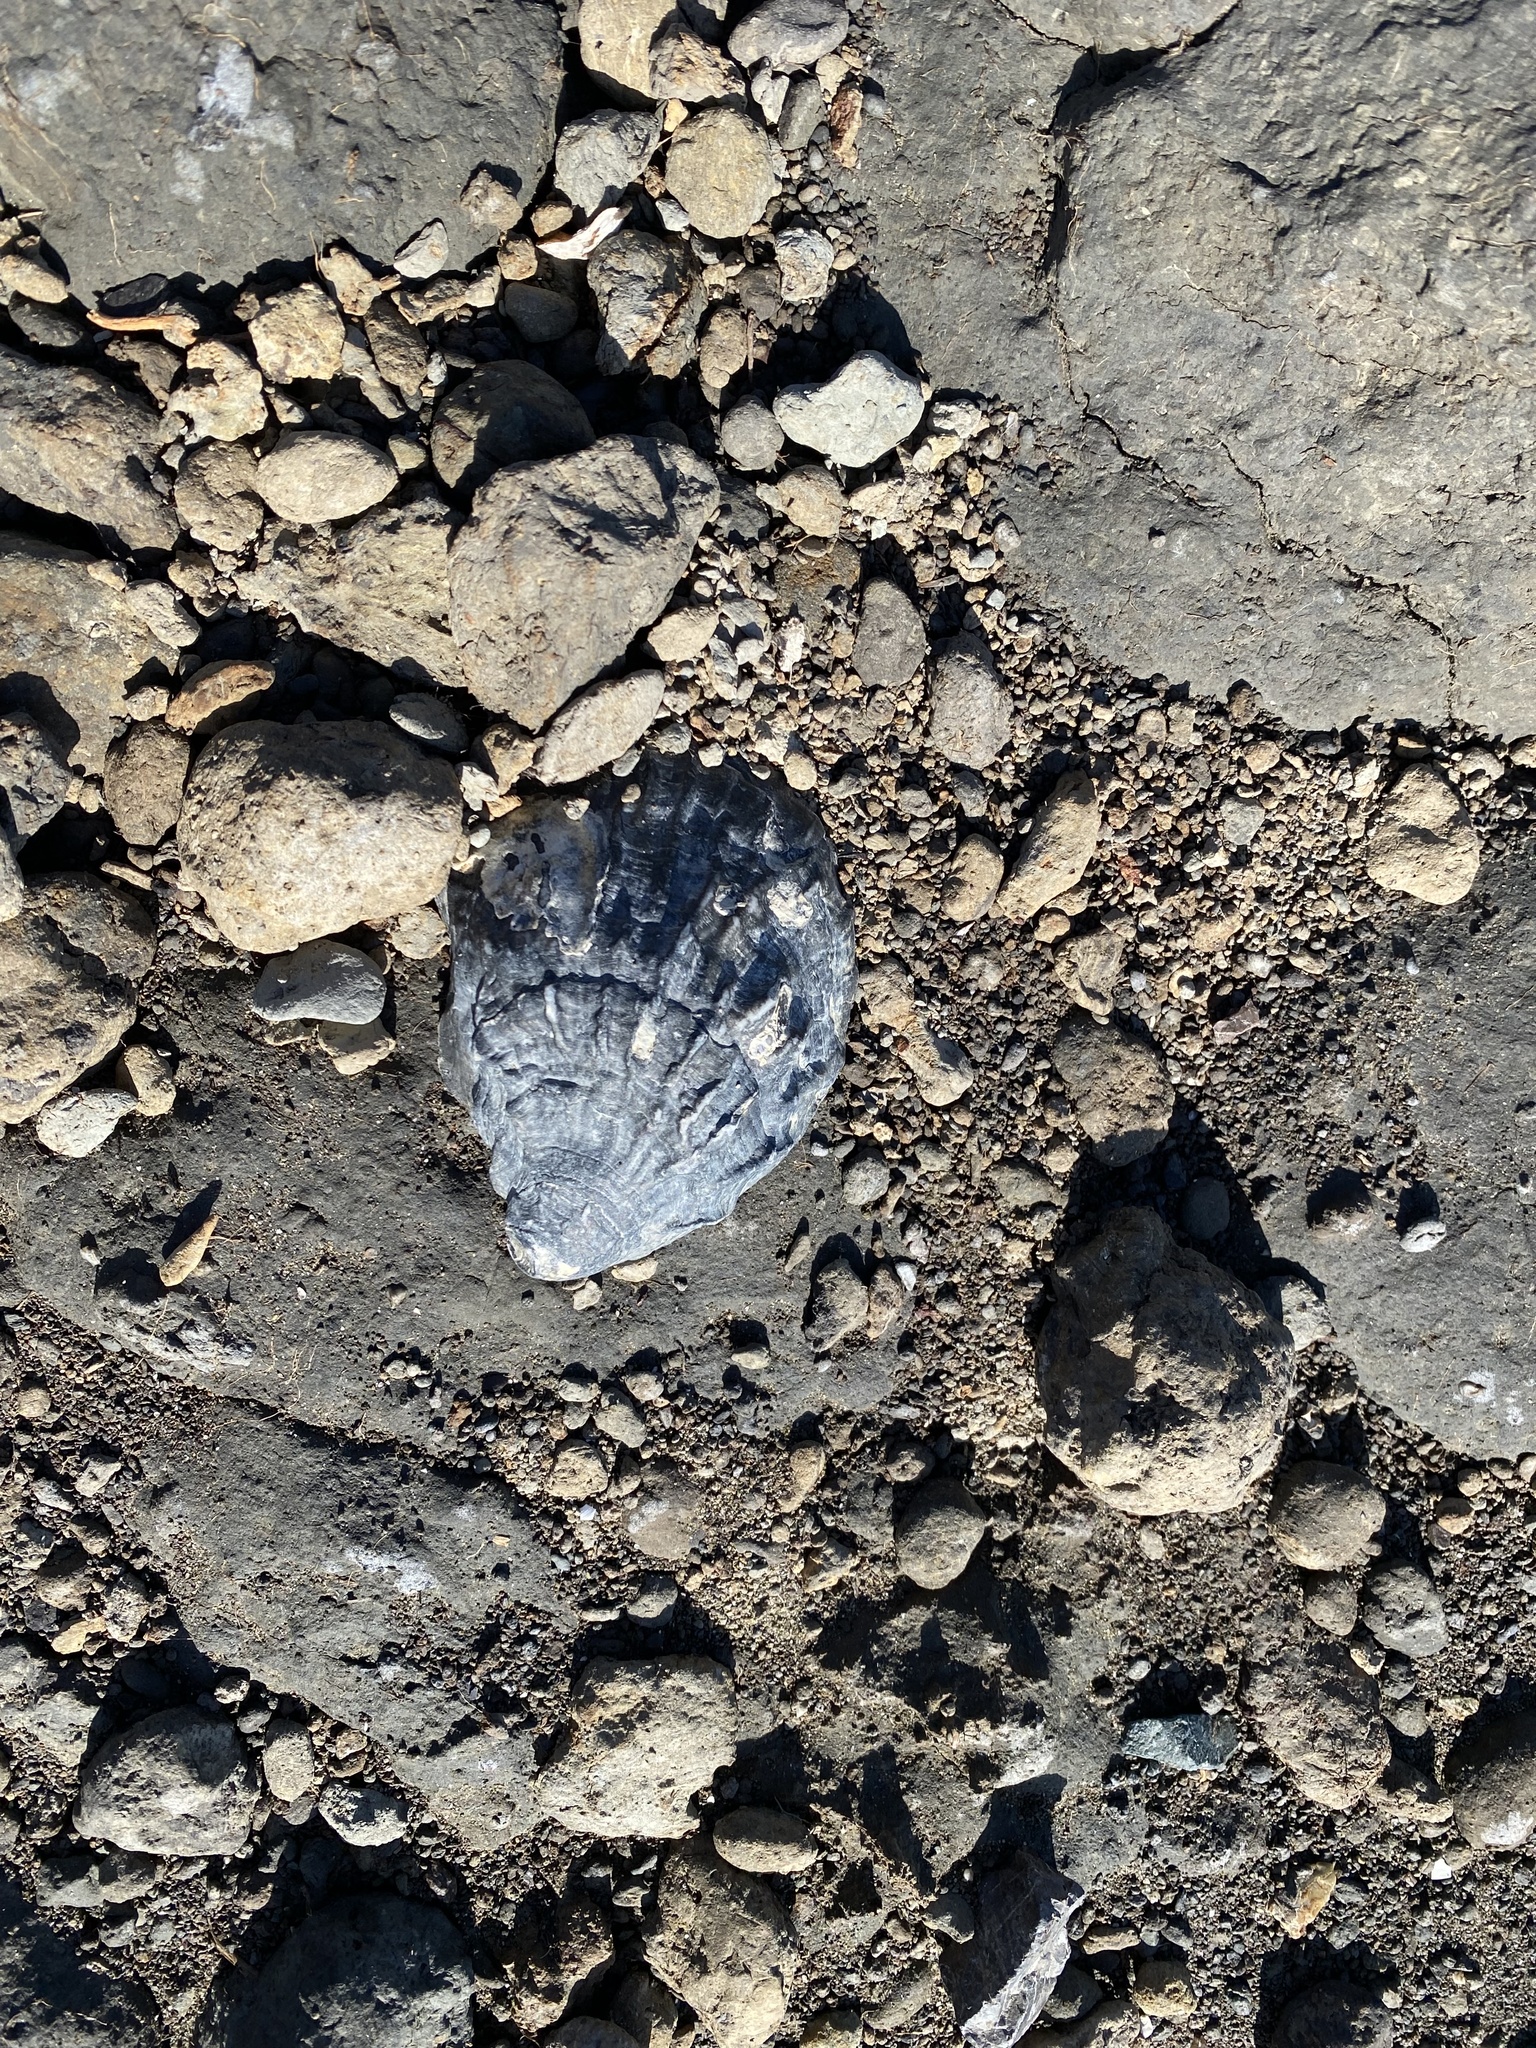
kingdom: Animalia
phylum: Mollusca
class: Bivalvia
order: Ostreida
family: Ostreidae
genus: Magallana
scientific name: Magallana gigas
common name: Pacific oyster
